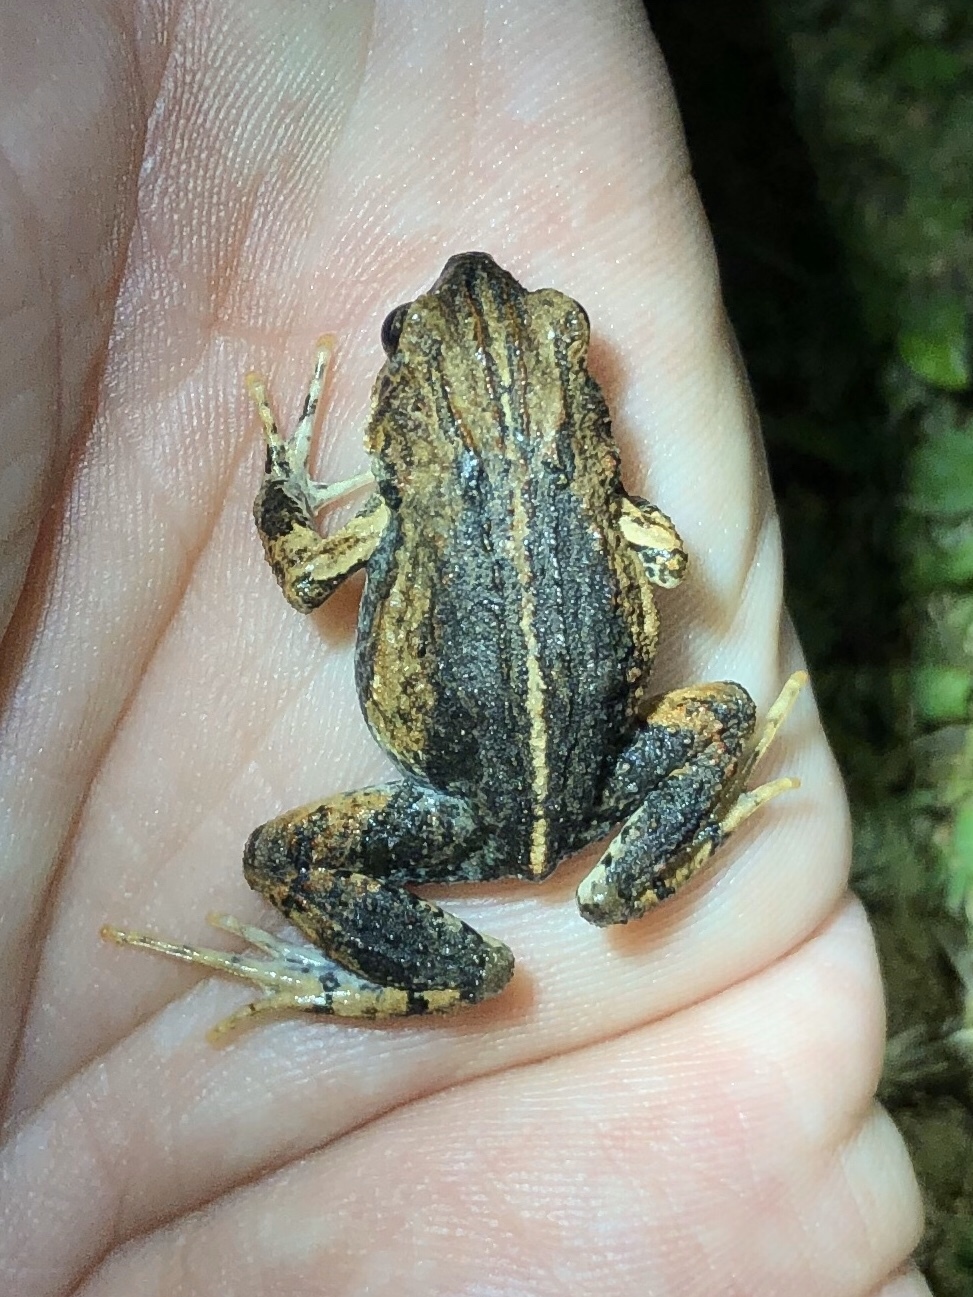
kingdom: Animalia
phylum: Chordata
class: Amphibia
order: Anura
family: Leptodactylidae
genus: Engystomops
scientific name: Engystomops pustulosus
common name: Tungara frog
